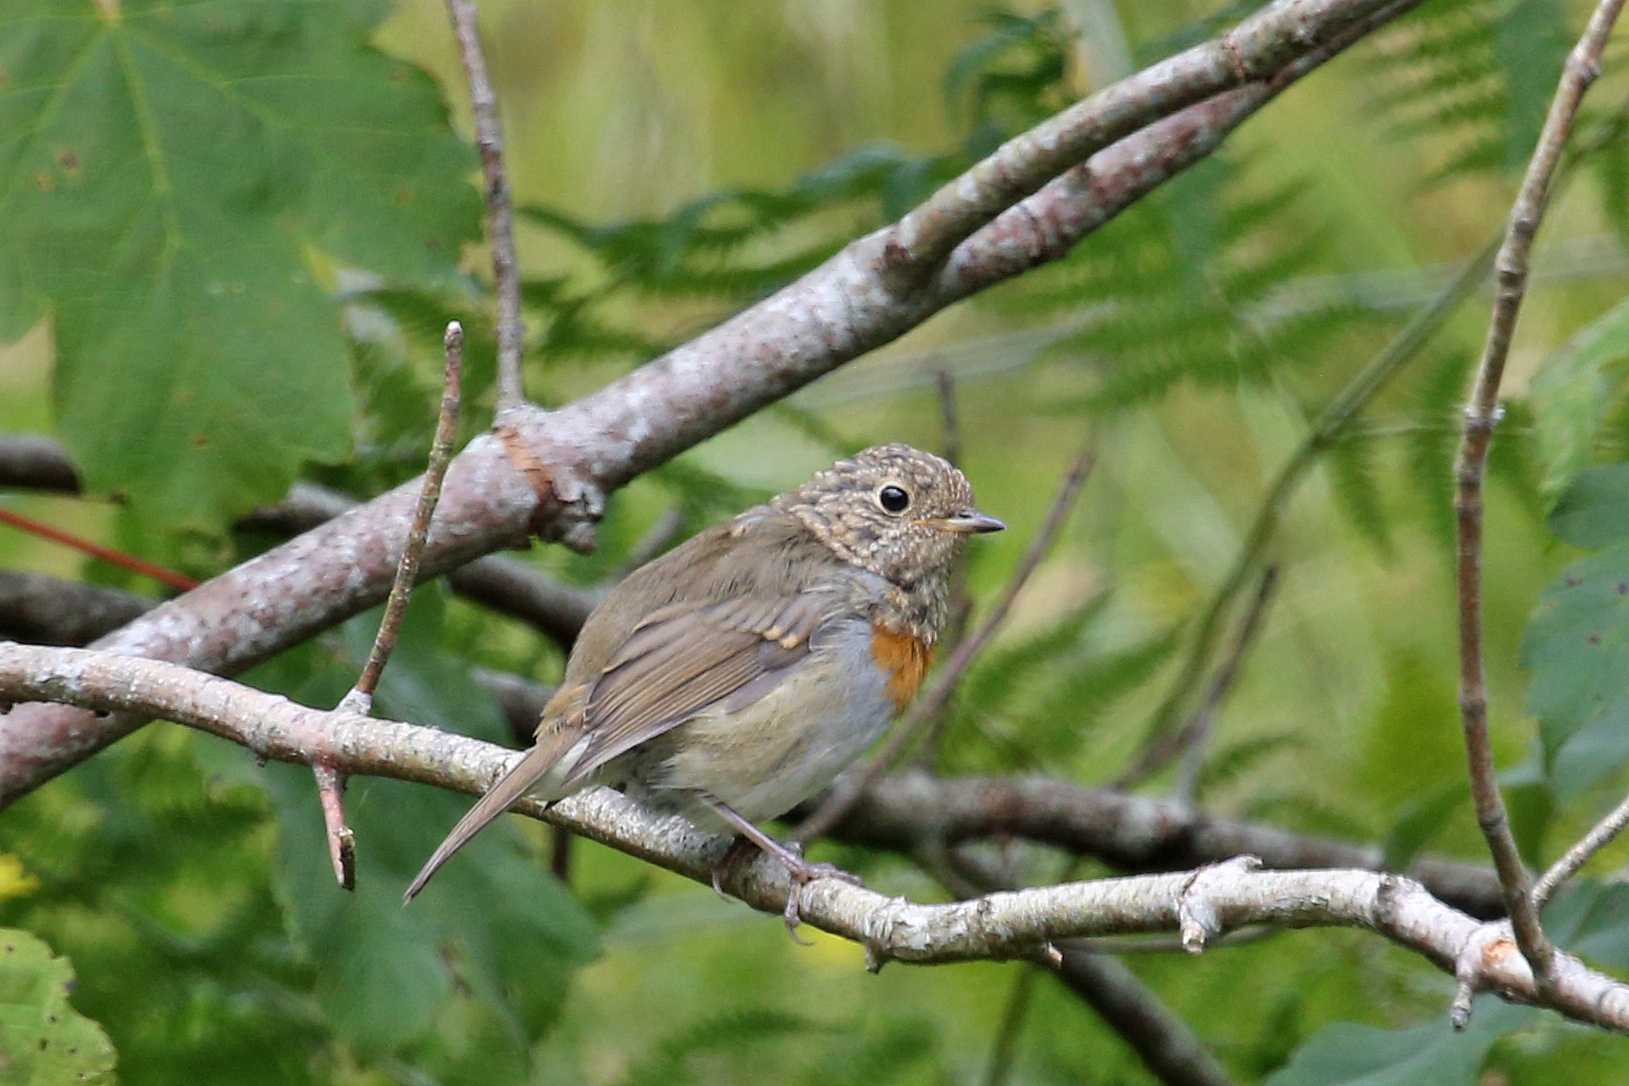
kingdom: Animalia
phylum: Chordata
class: Aves
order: Passeriformes
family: Muscicapidae
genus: Erithacus
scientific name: Erithacus rubecula
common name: European robin
